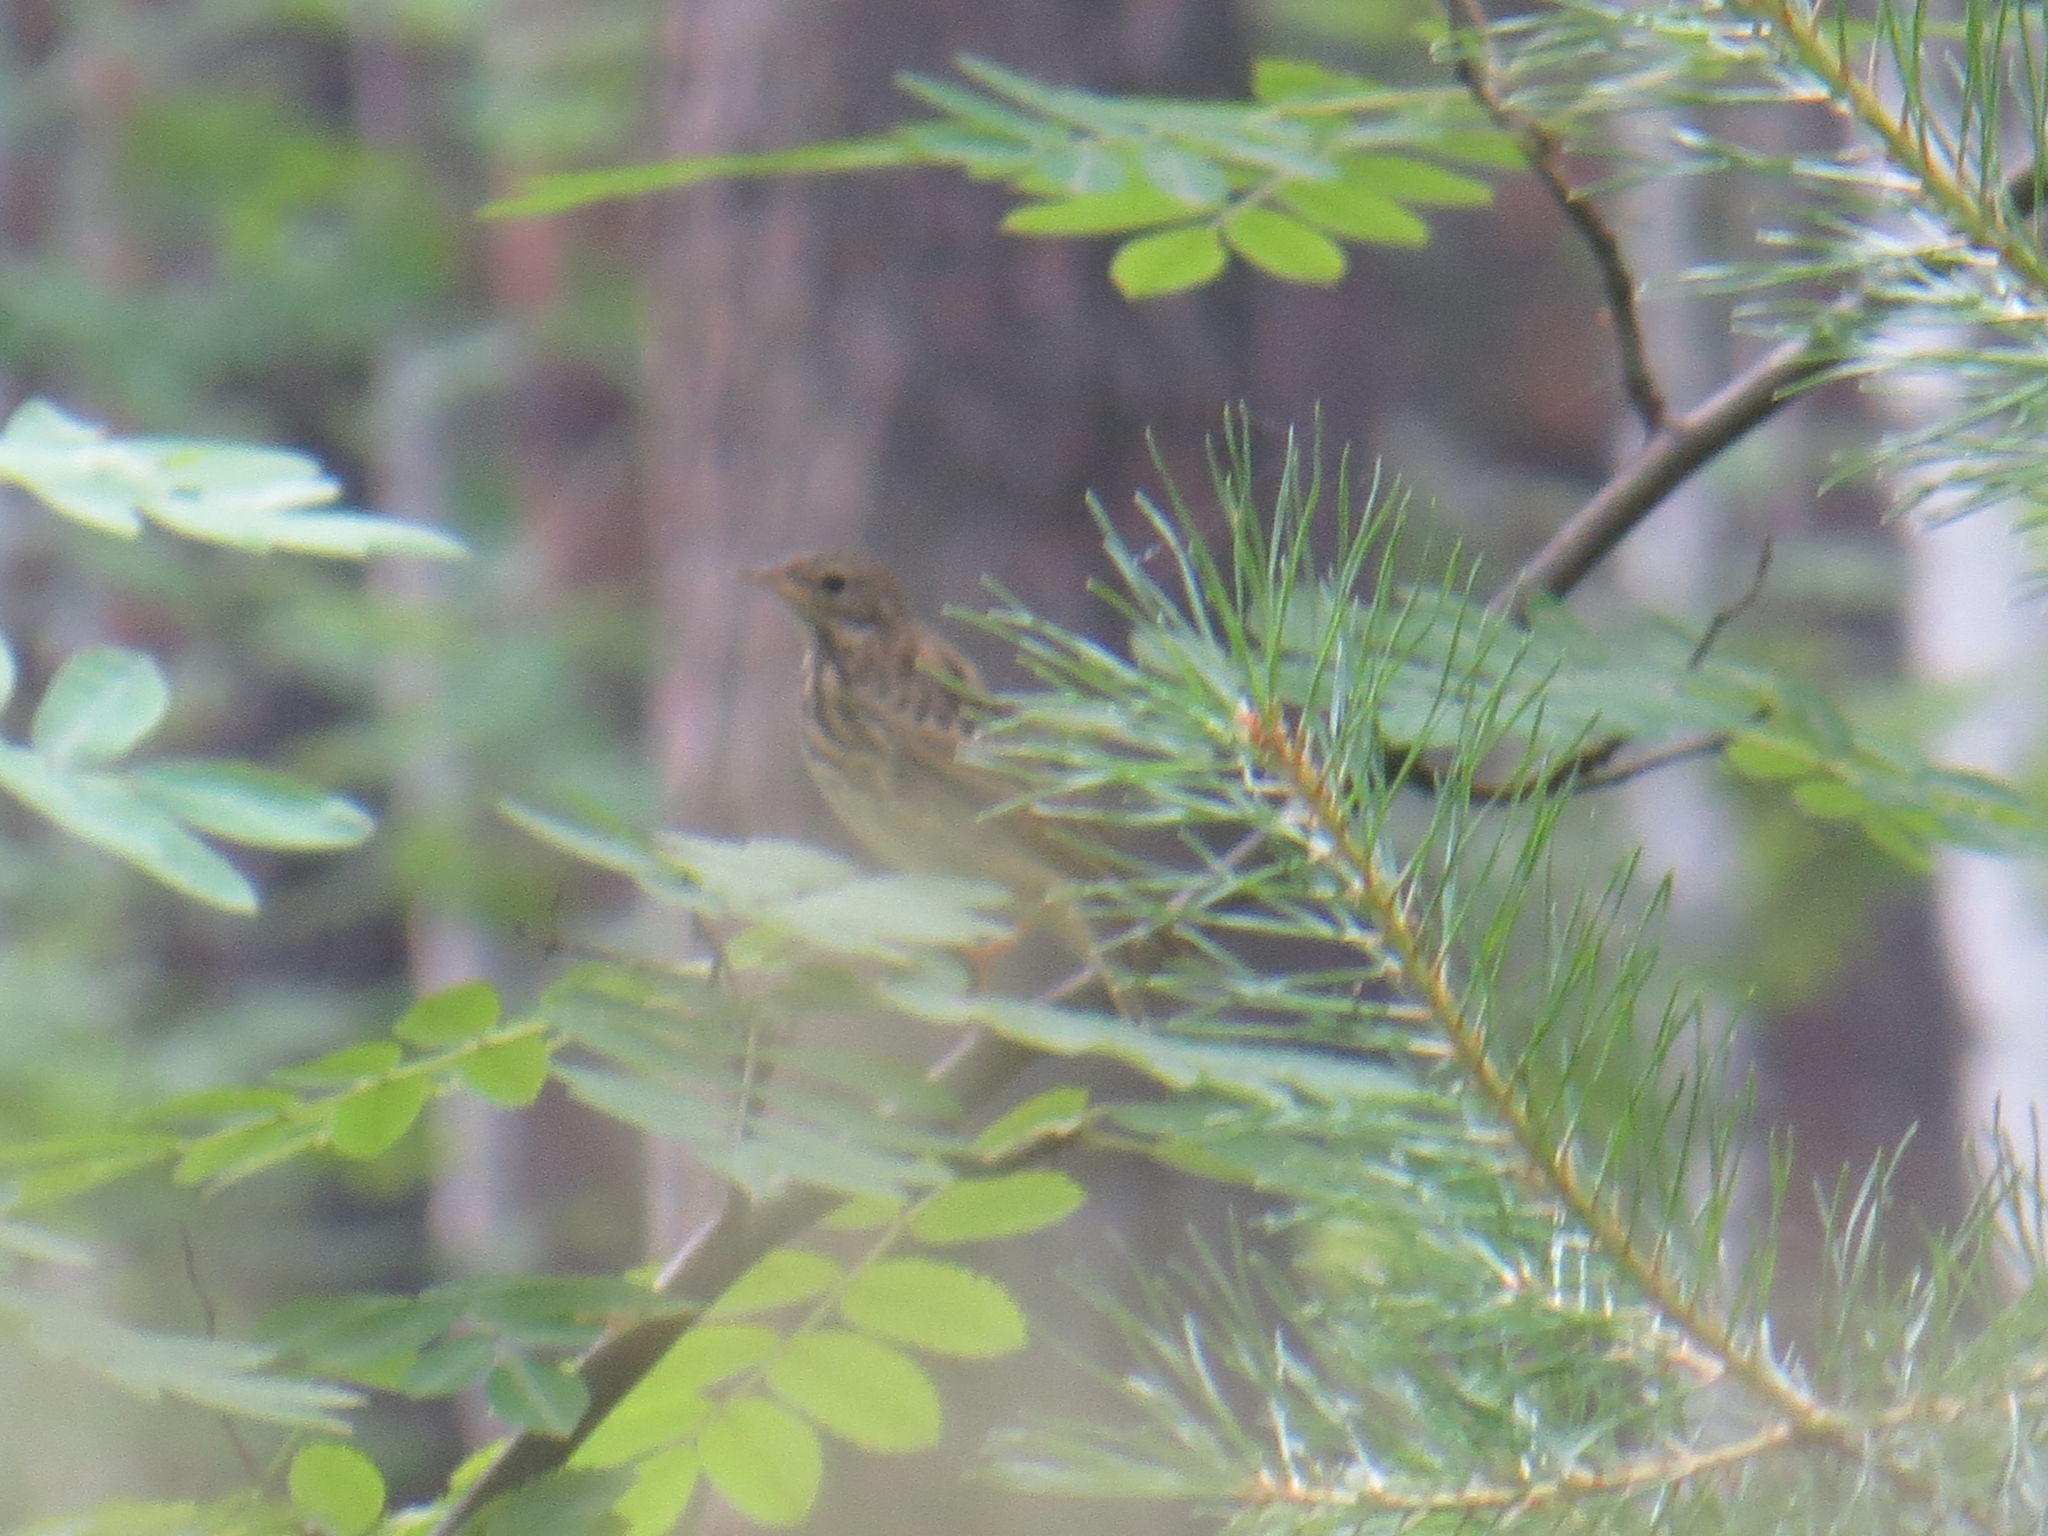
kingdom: Animalia
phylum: Chordata
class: Aves
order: Passeriformes
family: Motacillidae
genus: Anthus
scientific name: Anthus trivialis
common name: Tree pipit
